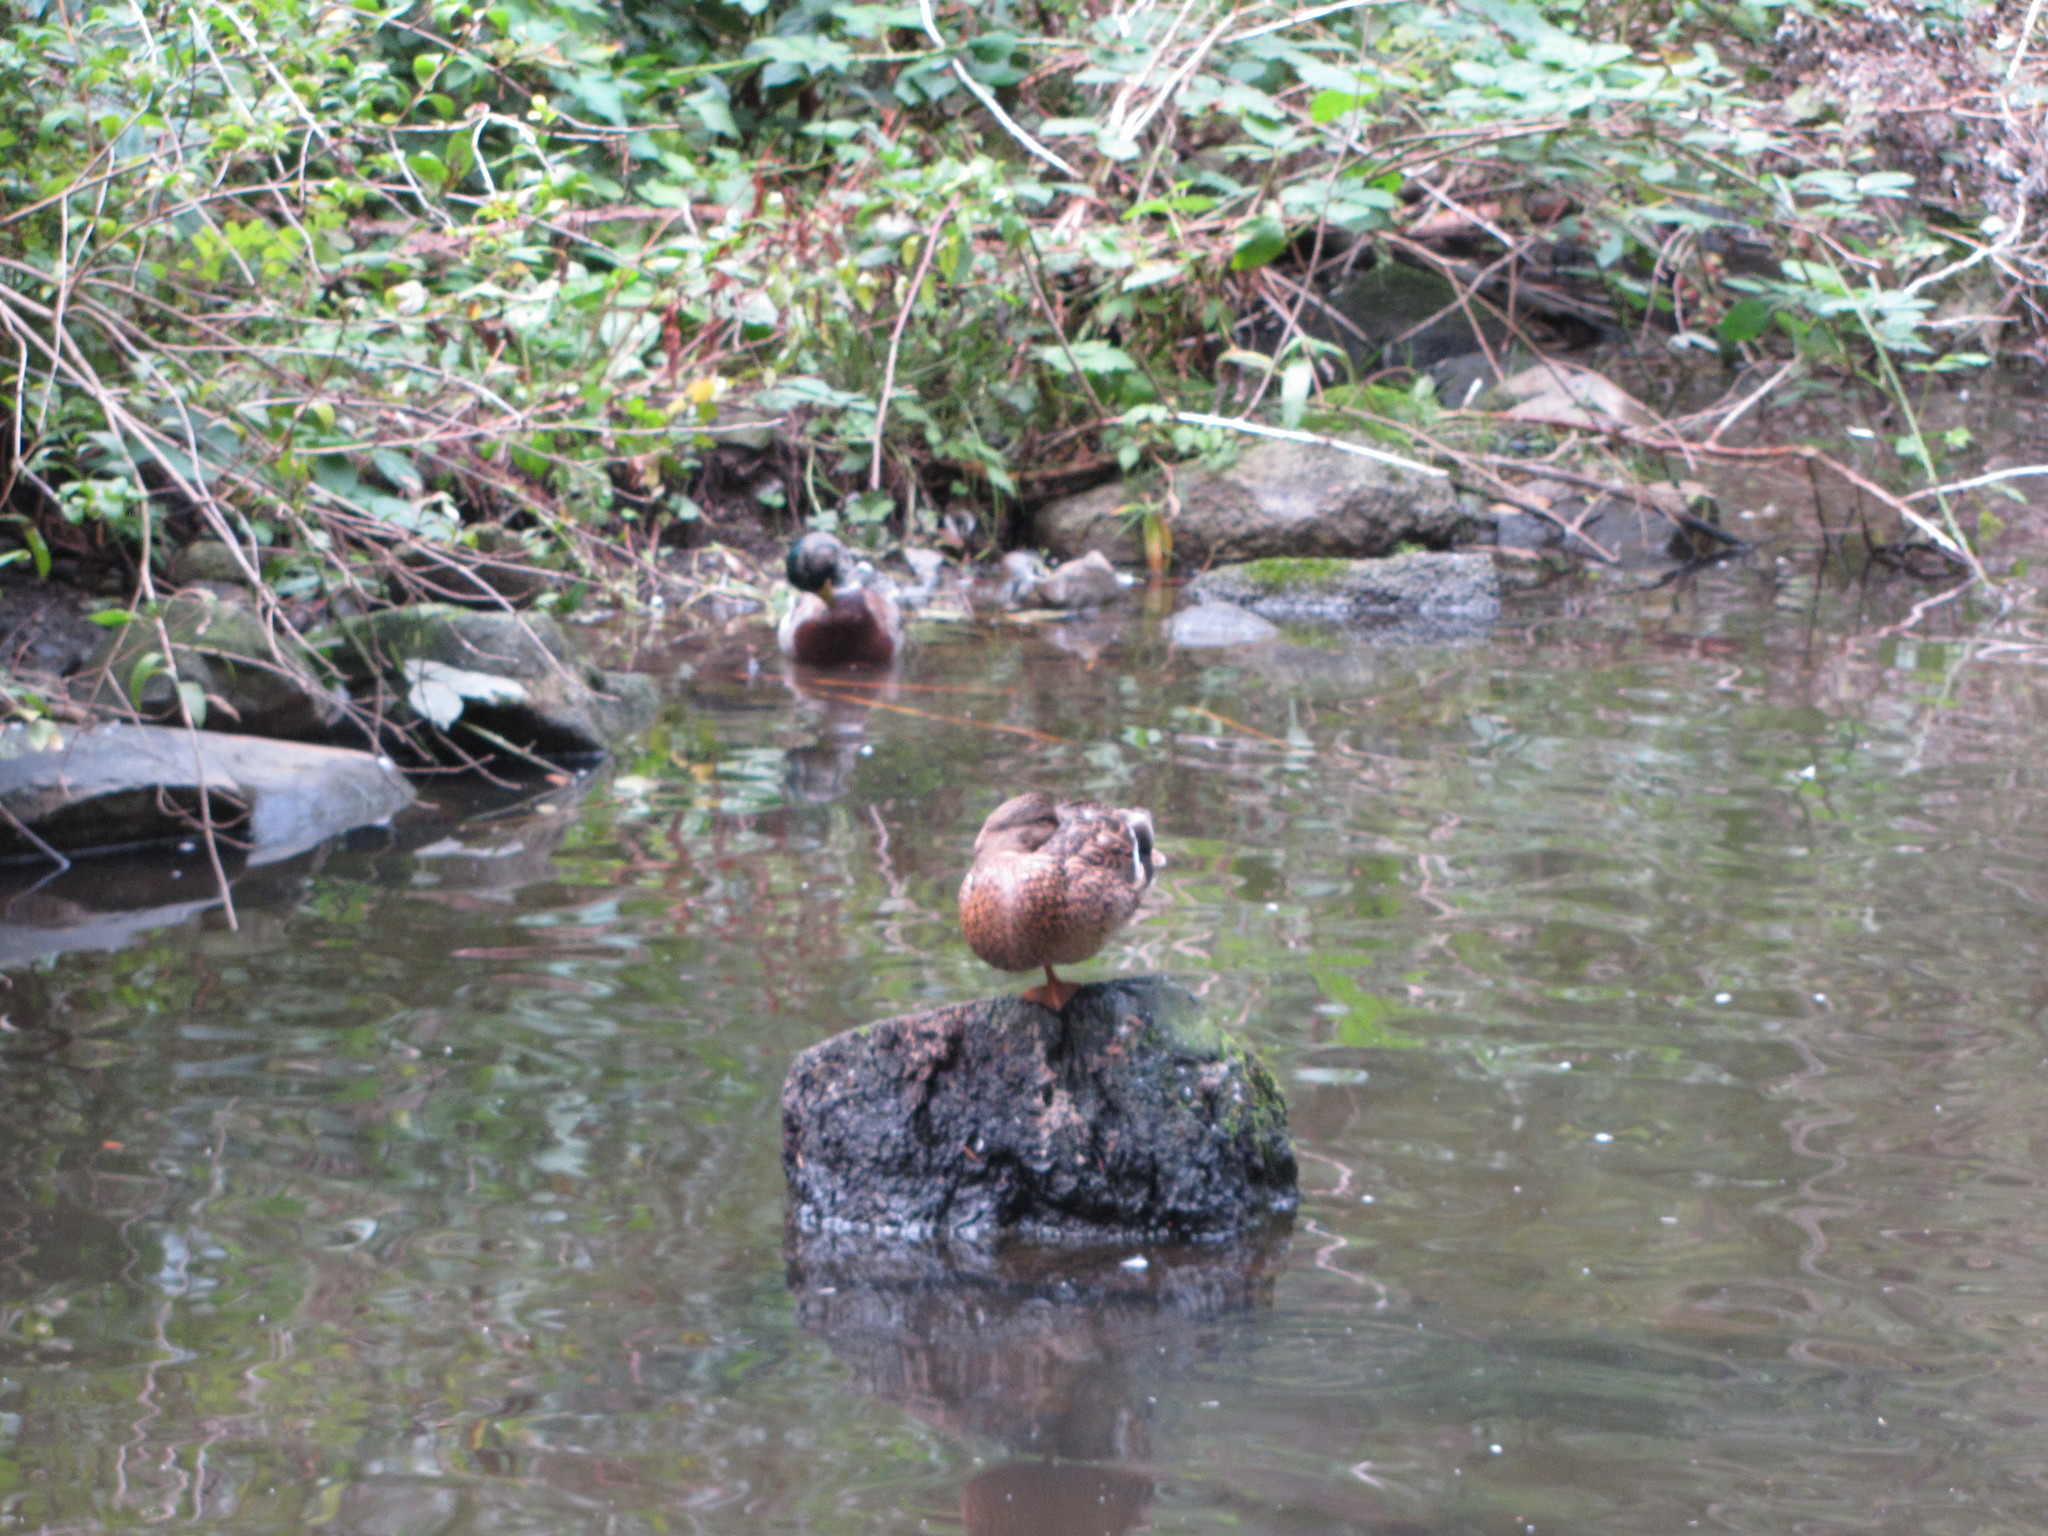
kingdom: Animalia
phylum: Chordata
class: Aves
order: Anseriformes
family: Anatidae
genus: Anas
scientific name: Anas platyrhynchos
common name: Mallard
